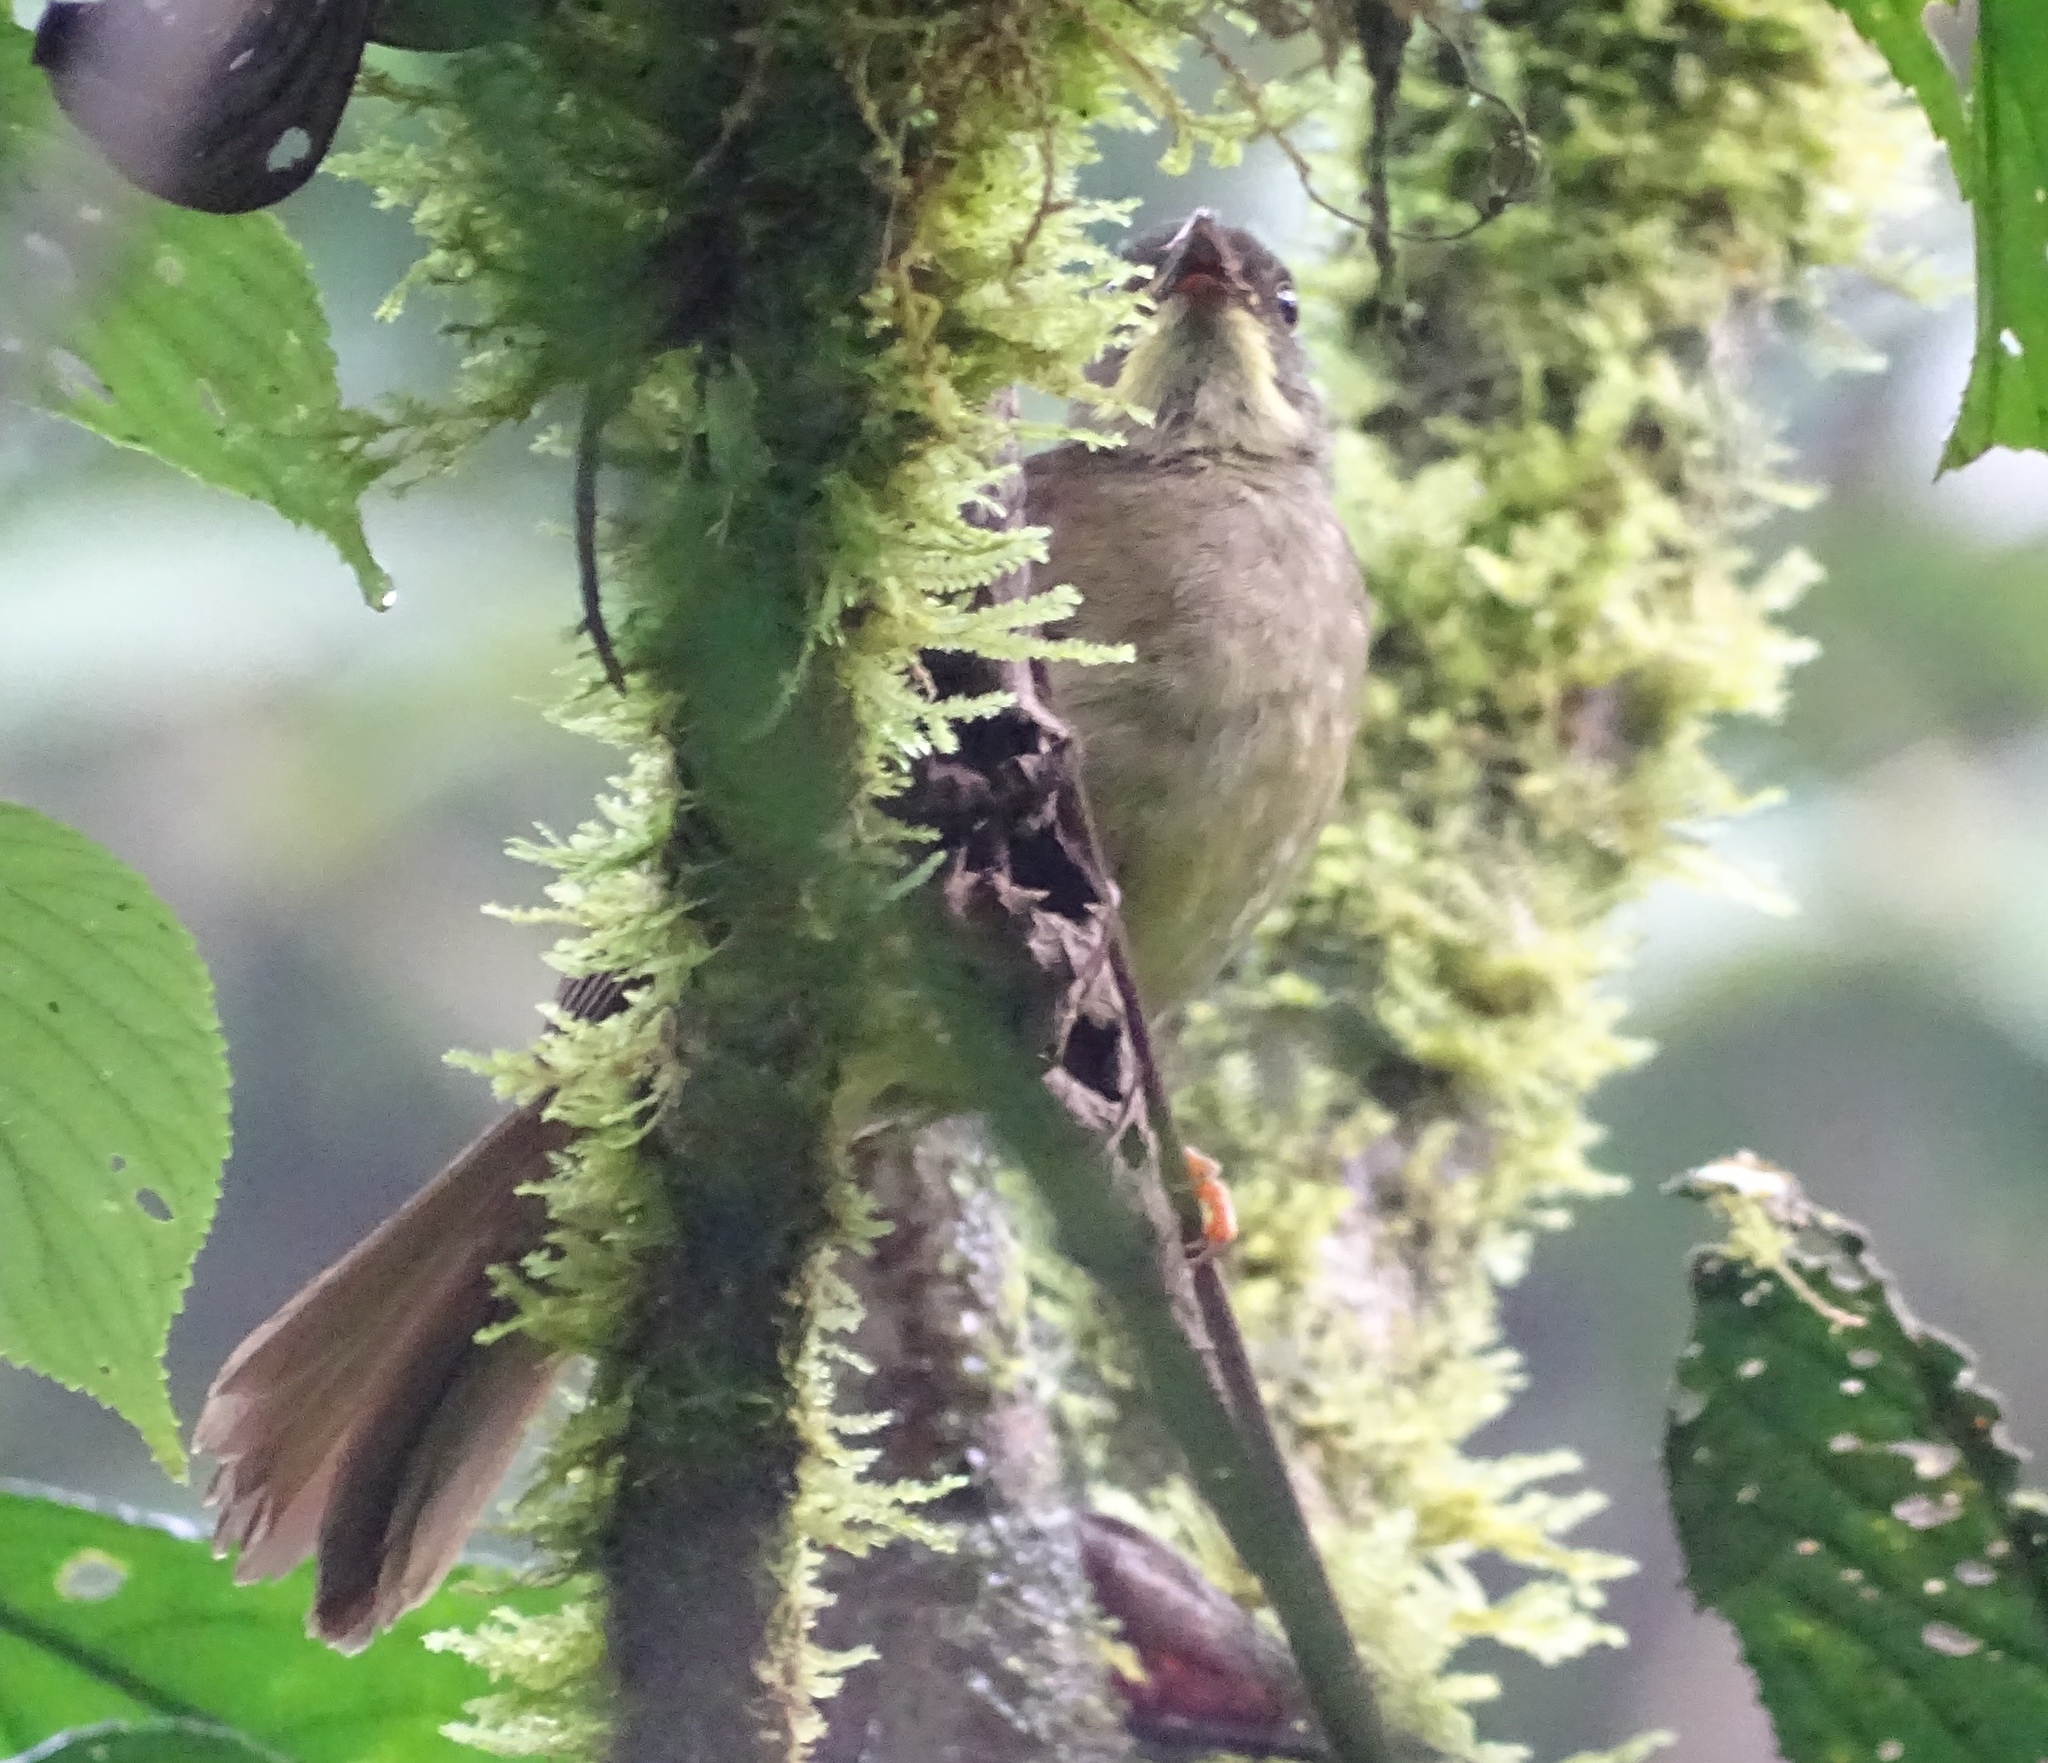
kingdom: Animalia
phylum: Chordata
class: Aves
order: Passeriformes
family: Pycnonotidae
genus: Eurillas
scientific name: Eurillas latirostris
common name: Yellow-whiskered greenbul
